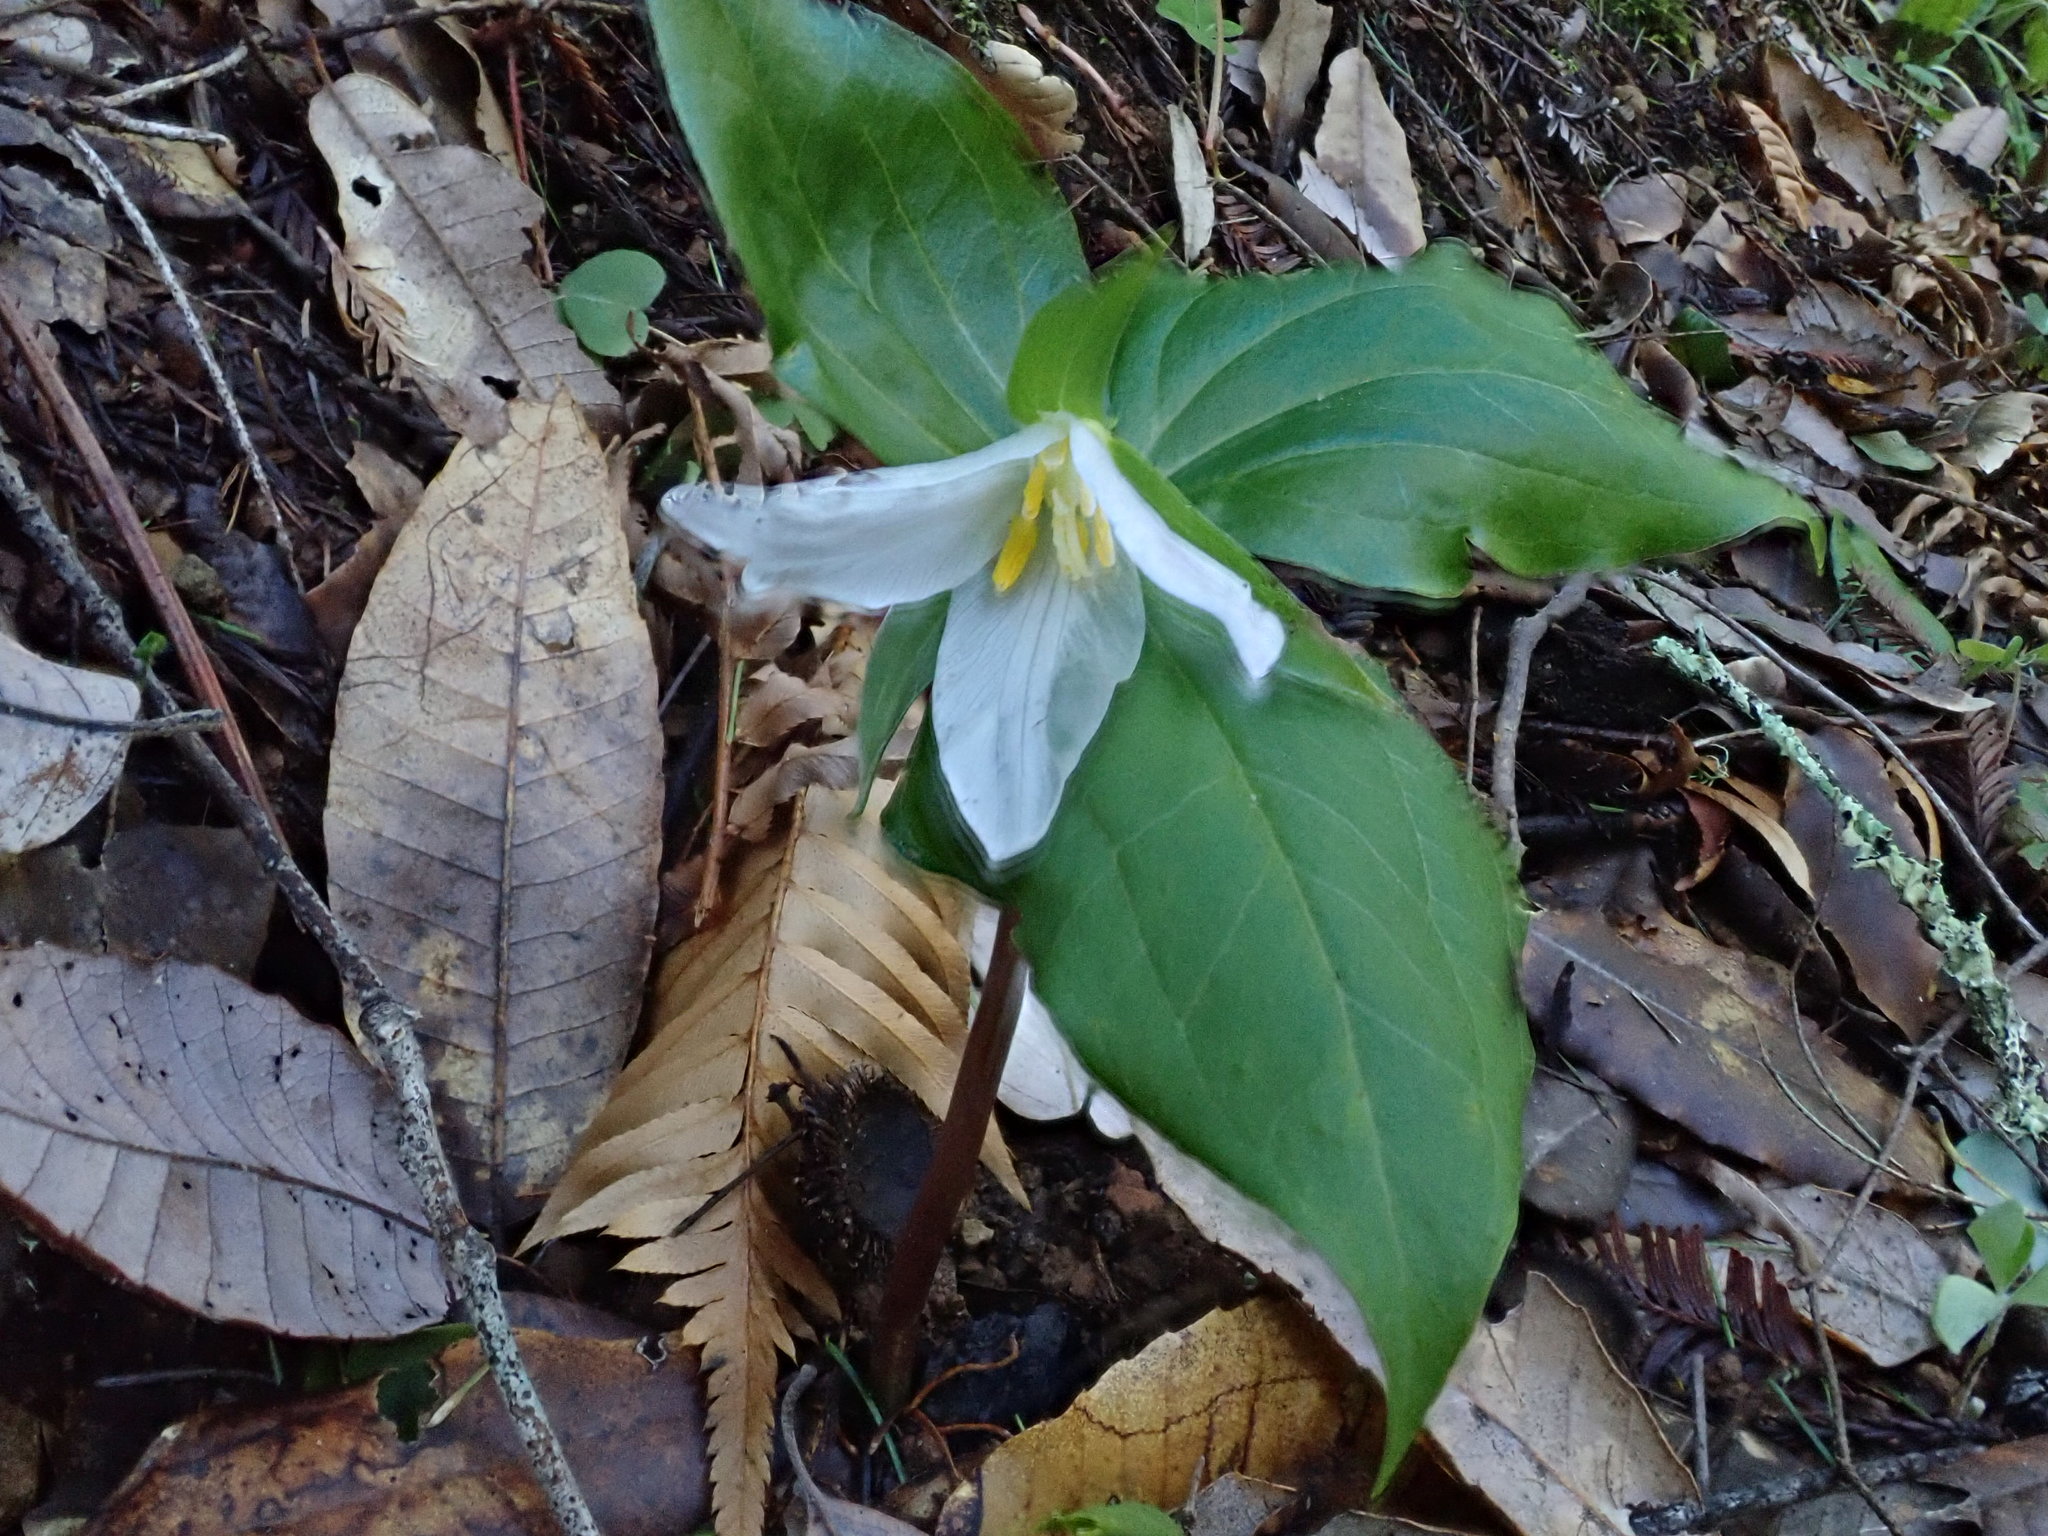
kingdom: Plantae
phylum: Tracheophyta
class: Liliopsida
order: Liliales
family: Melanthiaceae
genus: Trillium
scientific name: Trillium ovatum
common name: Pacific trillium
